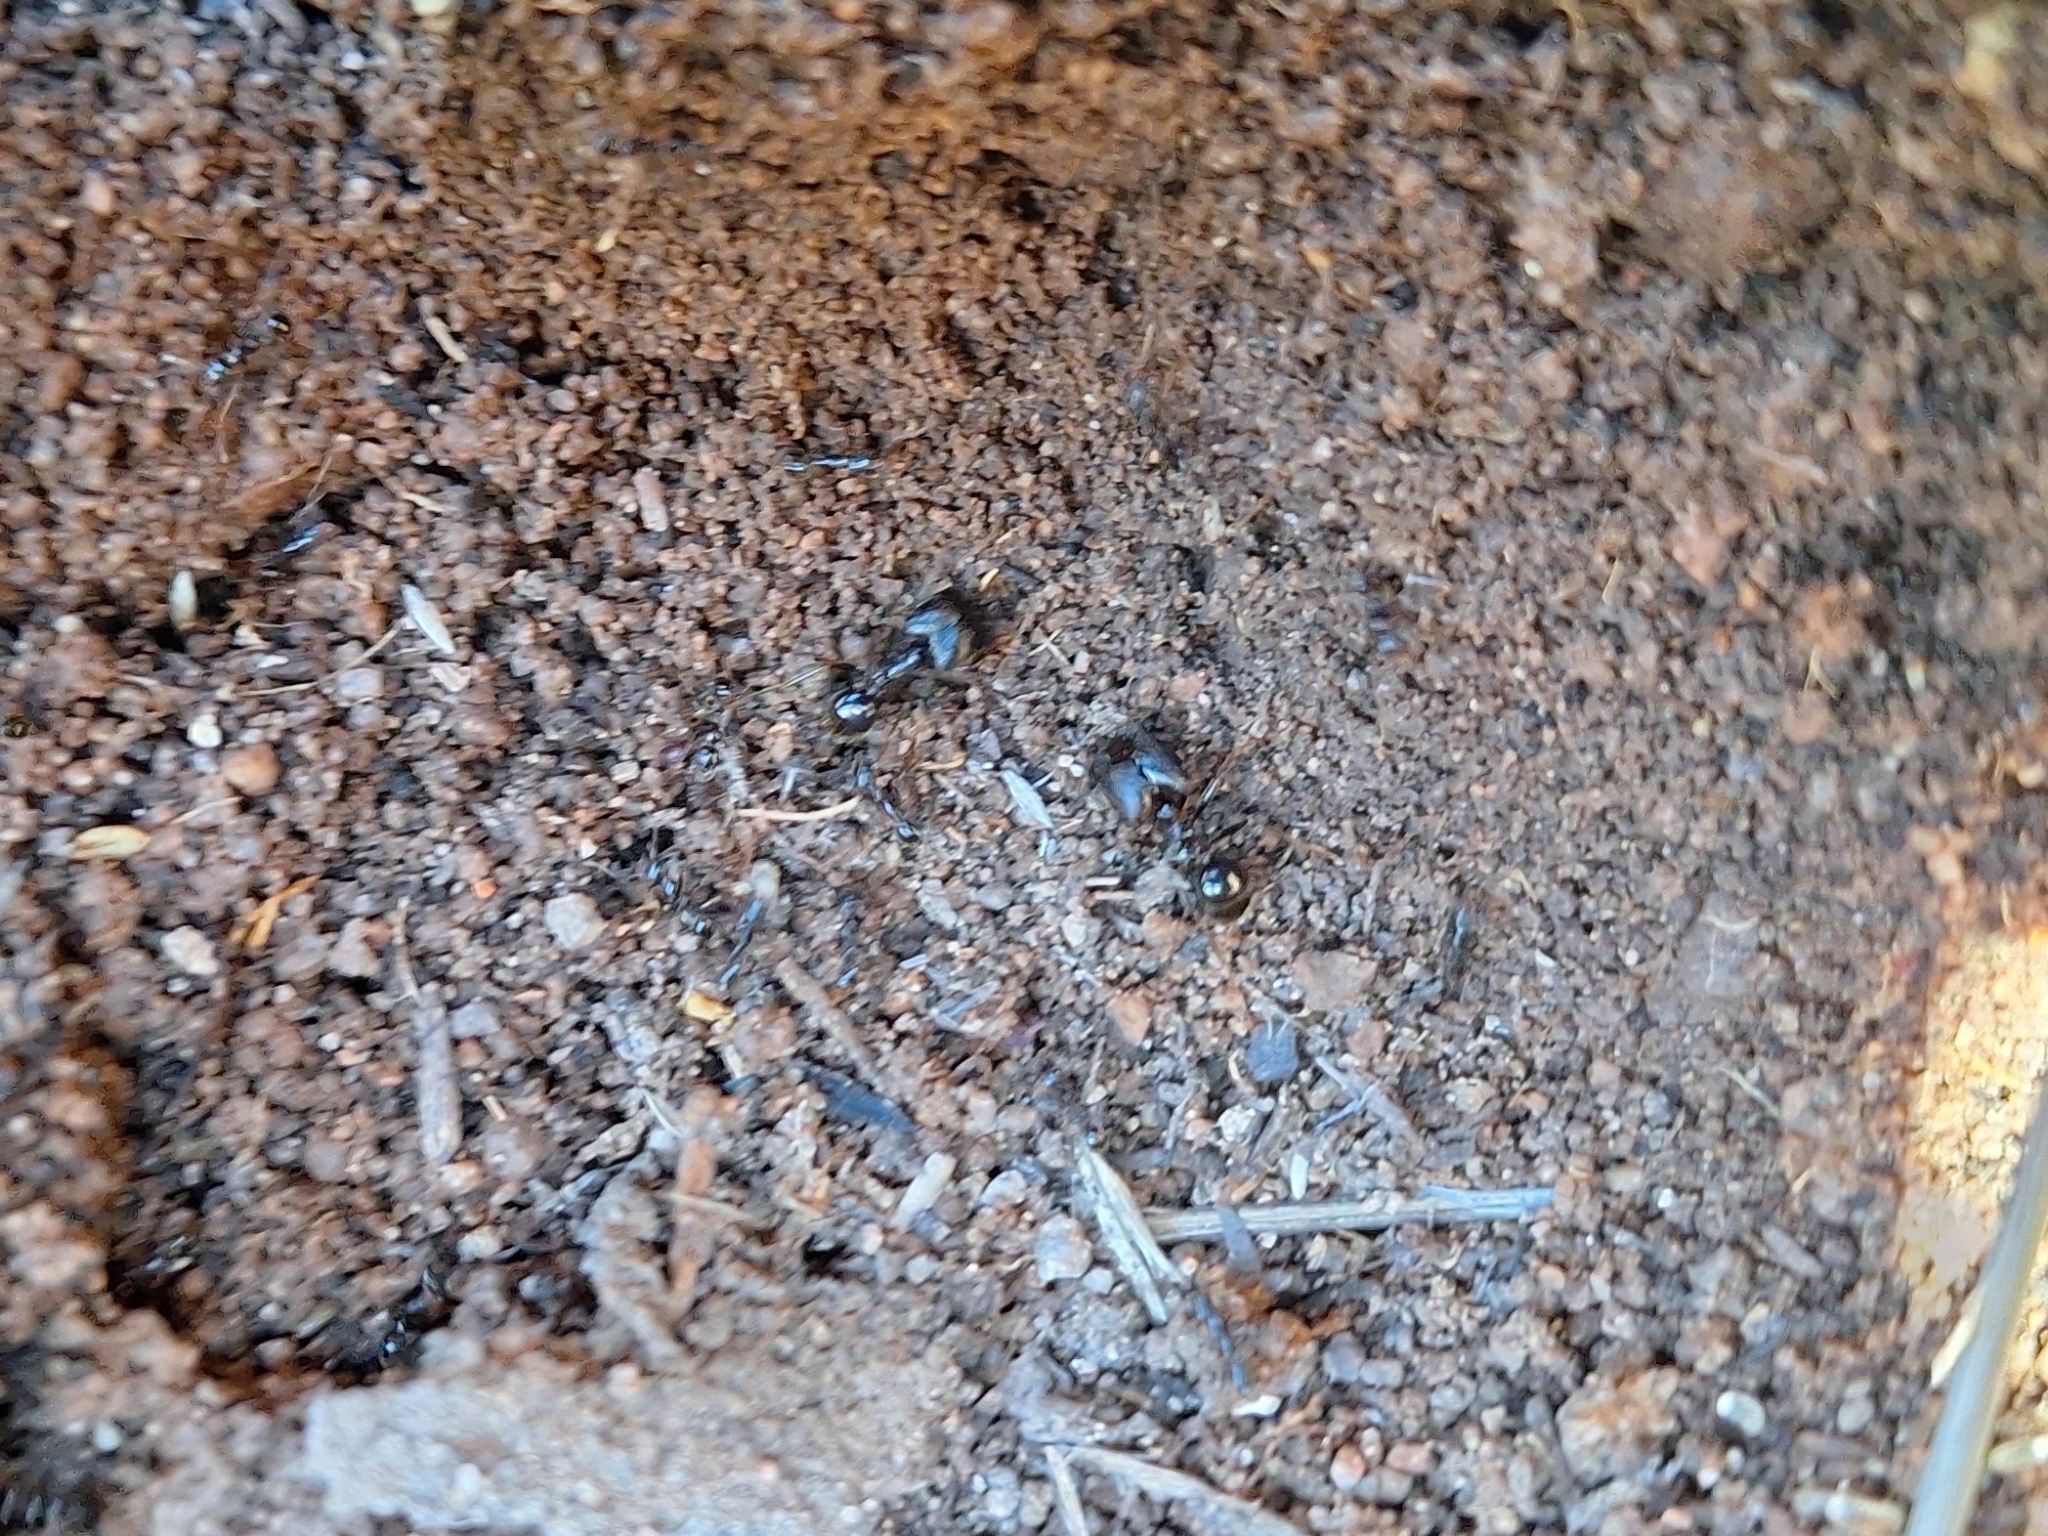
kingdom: Animalia
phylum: Arthropoda
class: Insecta
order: Hymenoptera
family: Formicidae
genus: Pheidole
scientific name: Pheidole rhea
